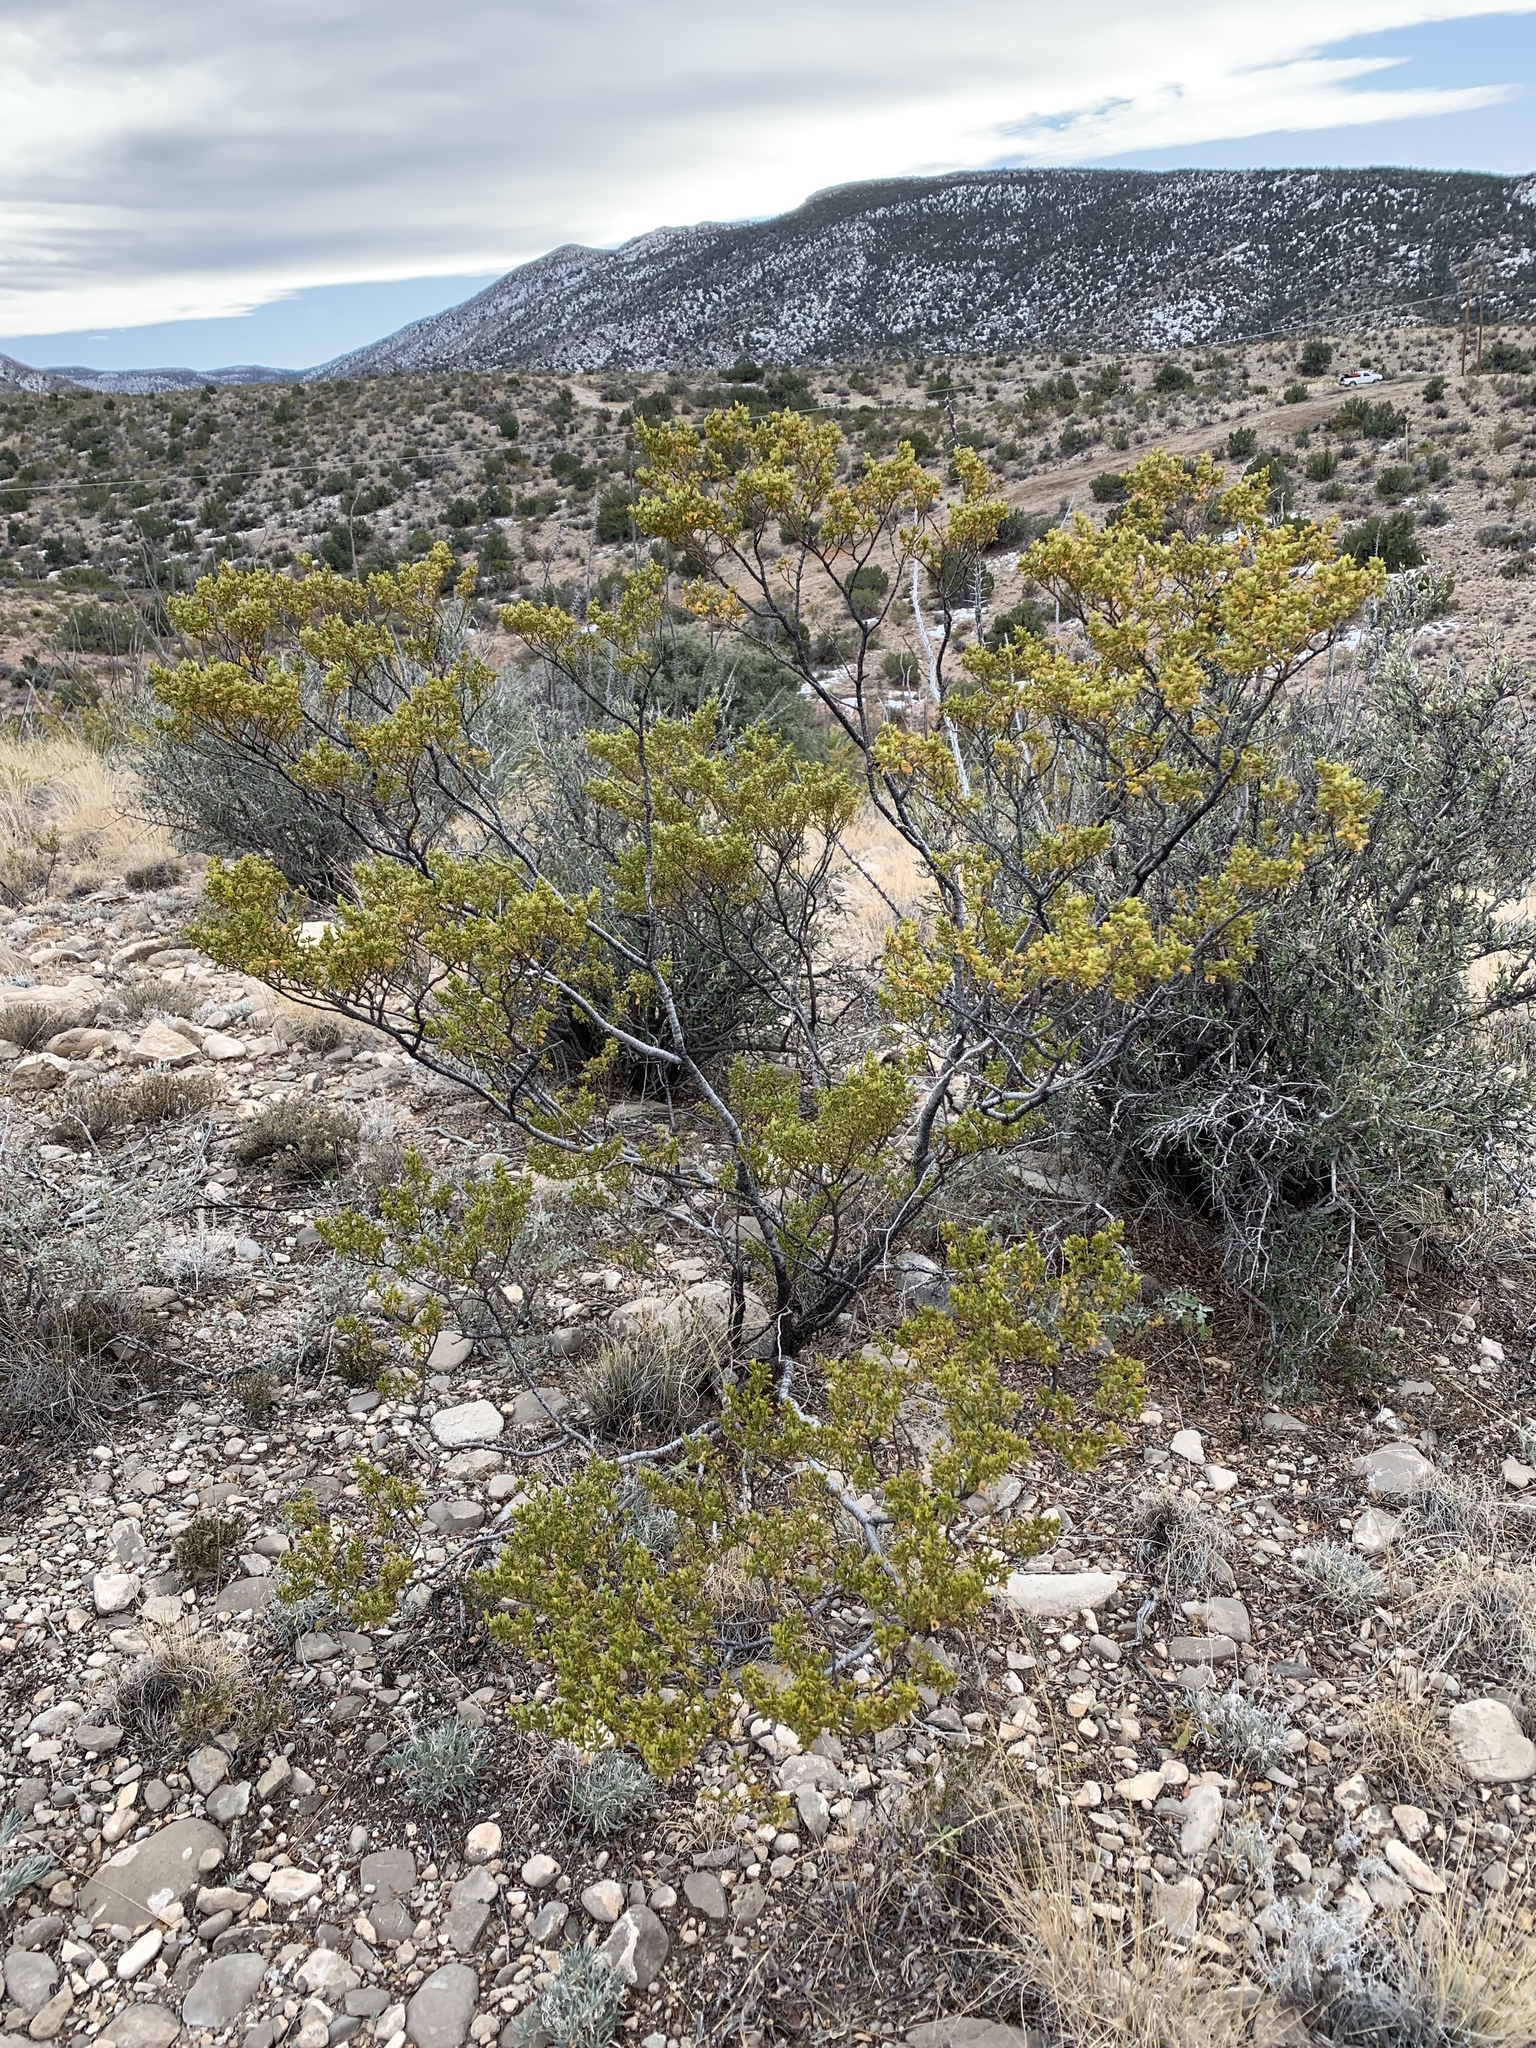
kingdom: Plantae
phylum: Tracheophyta
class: Magnoliopsida
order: Zygophyllales
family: Zygophyllaceae
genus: Larrea
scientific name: Larrea tridentata
